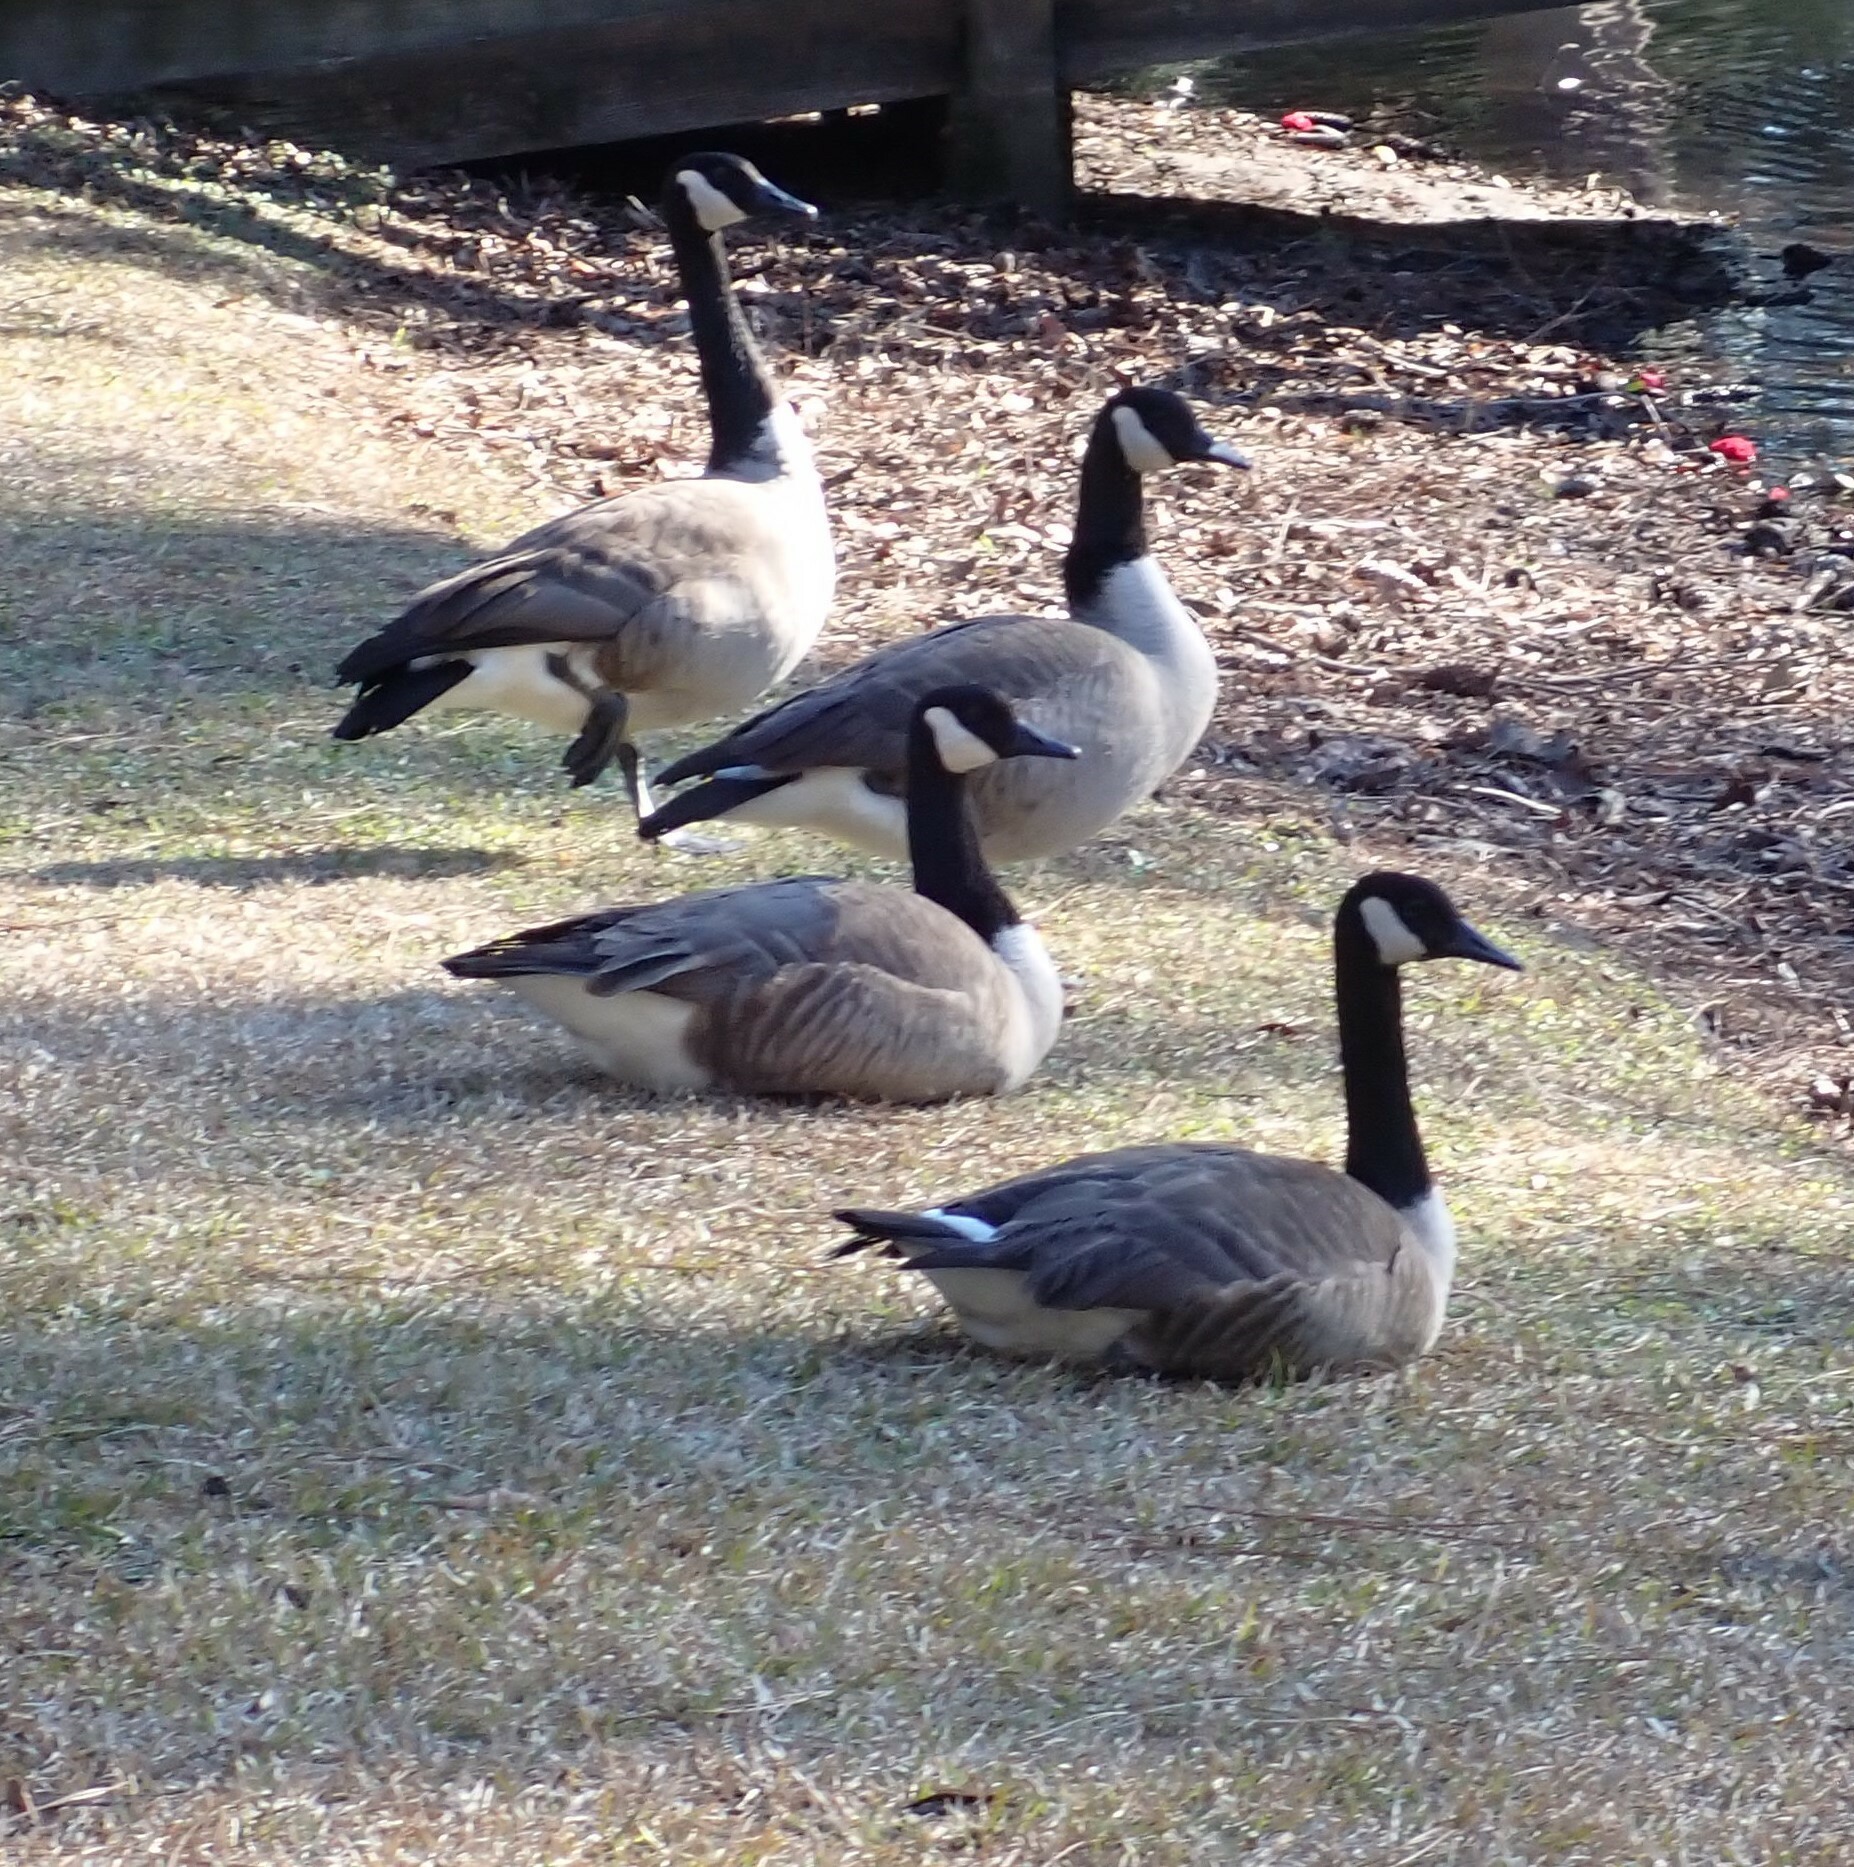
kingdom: Animalia
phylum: Chordata
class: Aves
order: Anseriformes
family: Anatidae
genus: Branta
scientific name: Branta canadensis
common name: Canada goose
